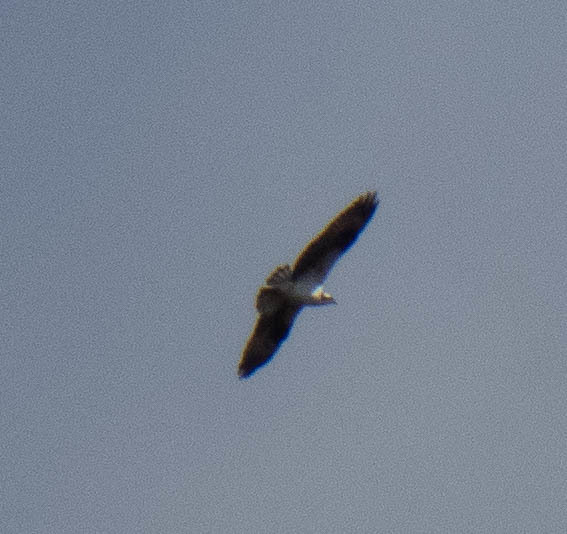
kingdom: Animalia
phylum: Chordata
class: Aves
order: Accipitriformes
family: Pandionidae
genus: Pandion
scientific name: Pandion haliaetus
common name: Osprey
